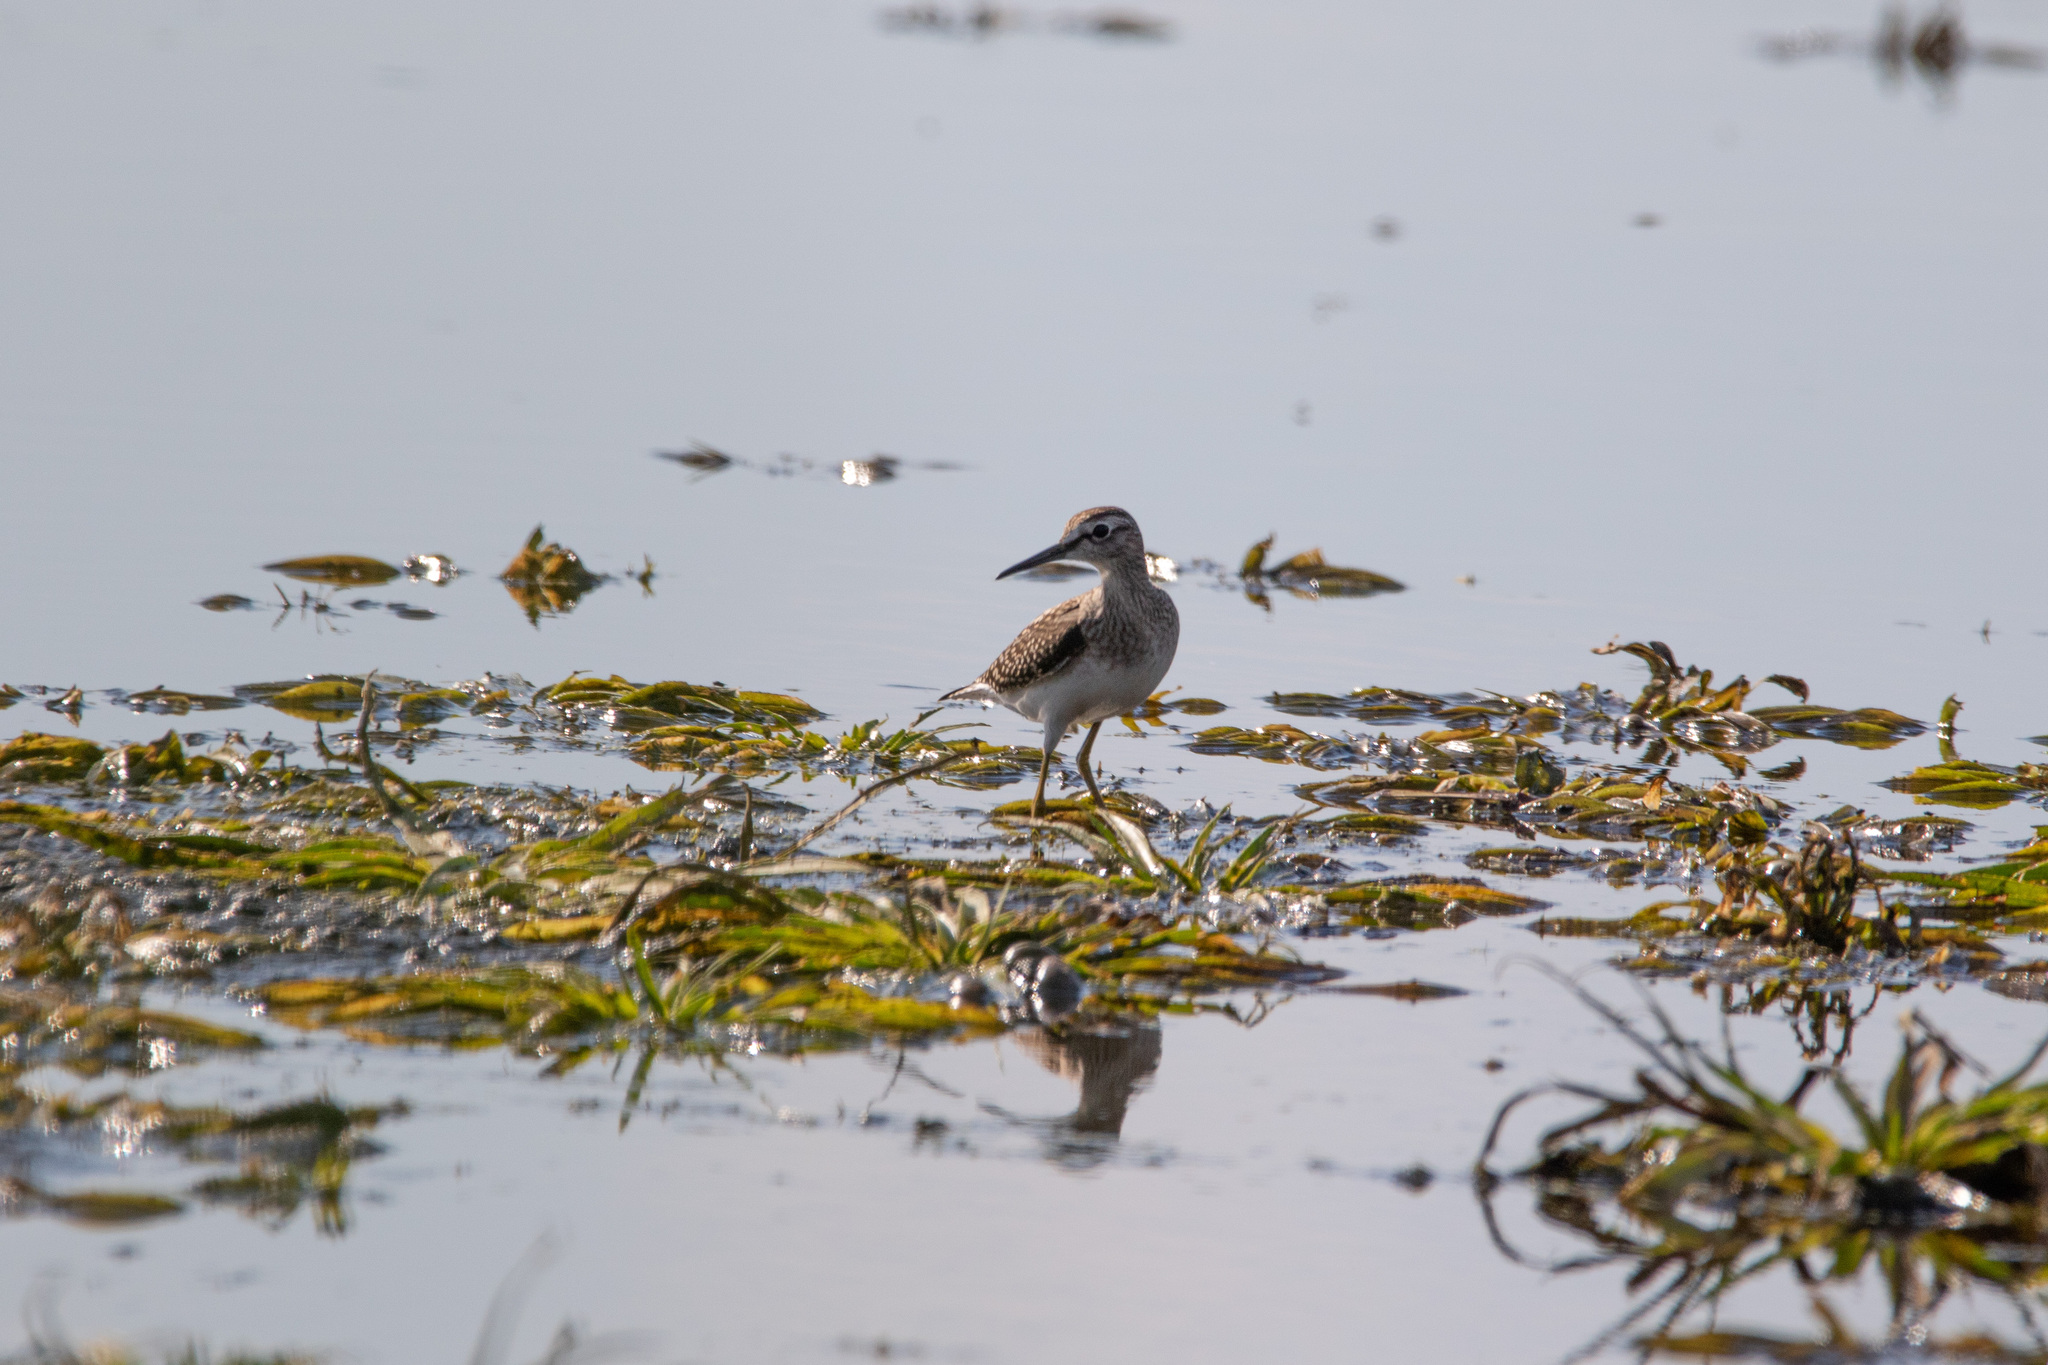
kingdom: Animalia
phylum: Chordata
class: Aves
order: Charadriiformes
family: Scolopacidae
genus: Tringa
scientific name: Tringa glareola
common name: Wood sandpiper
